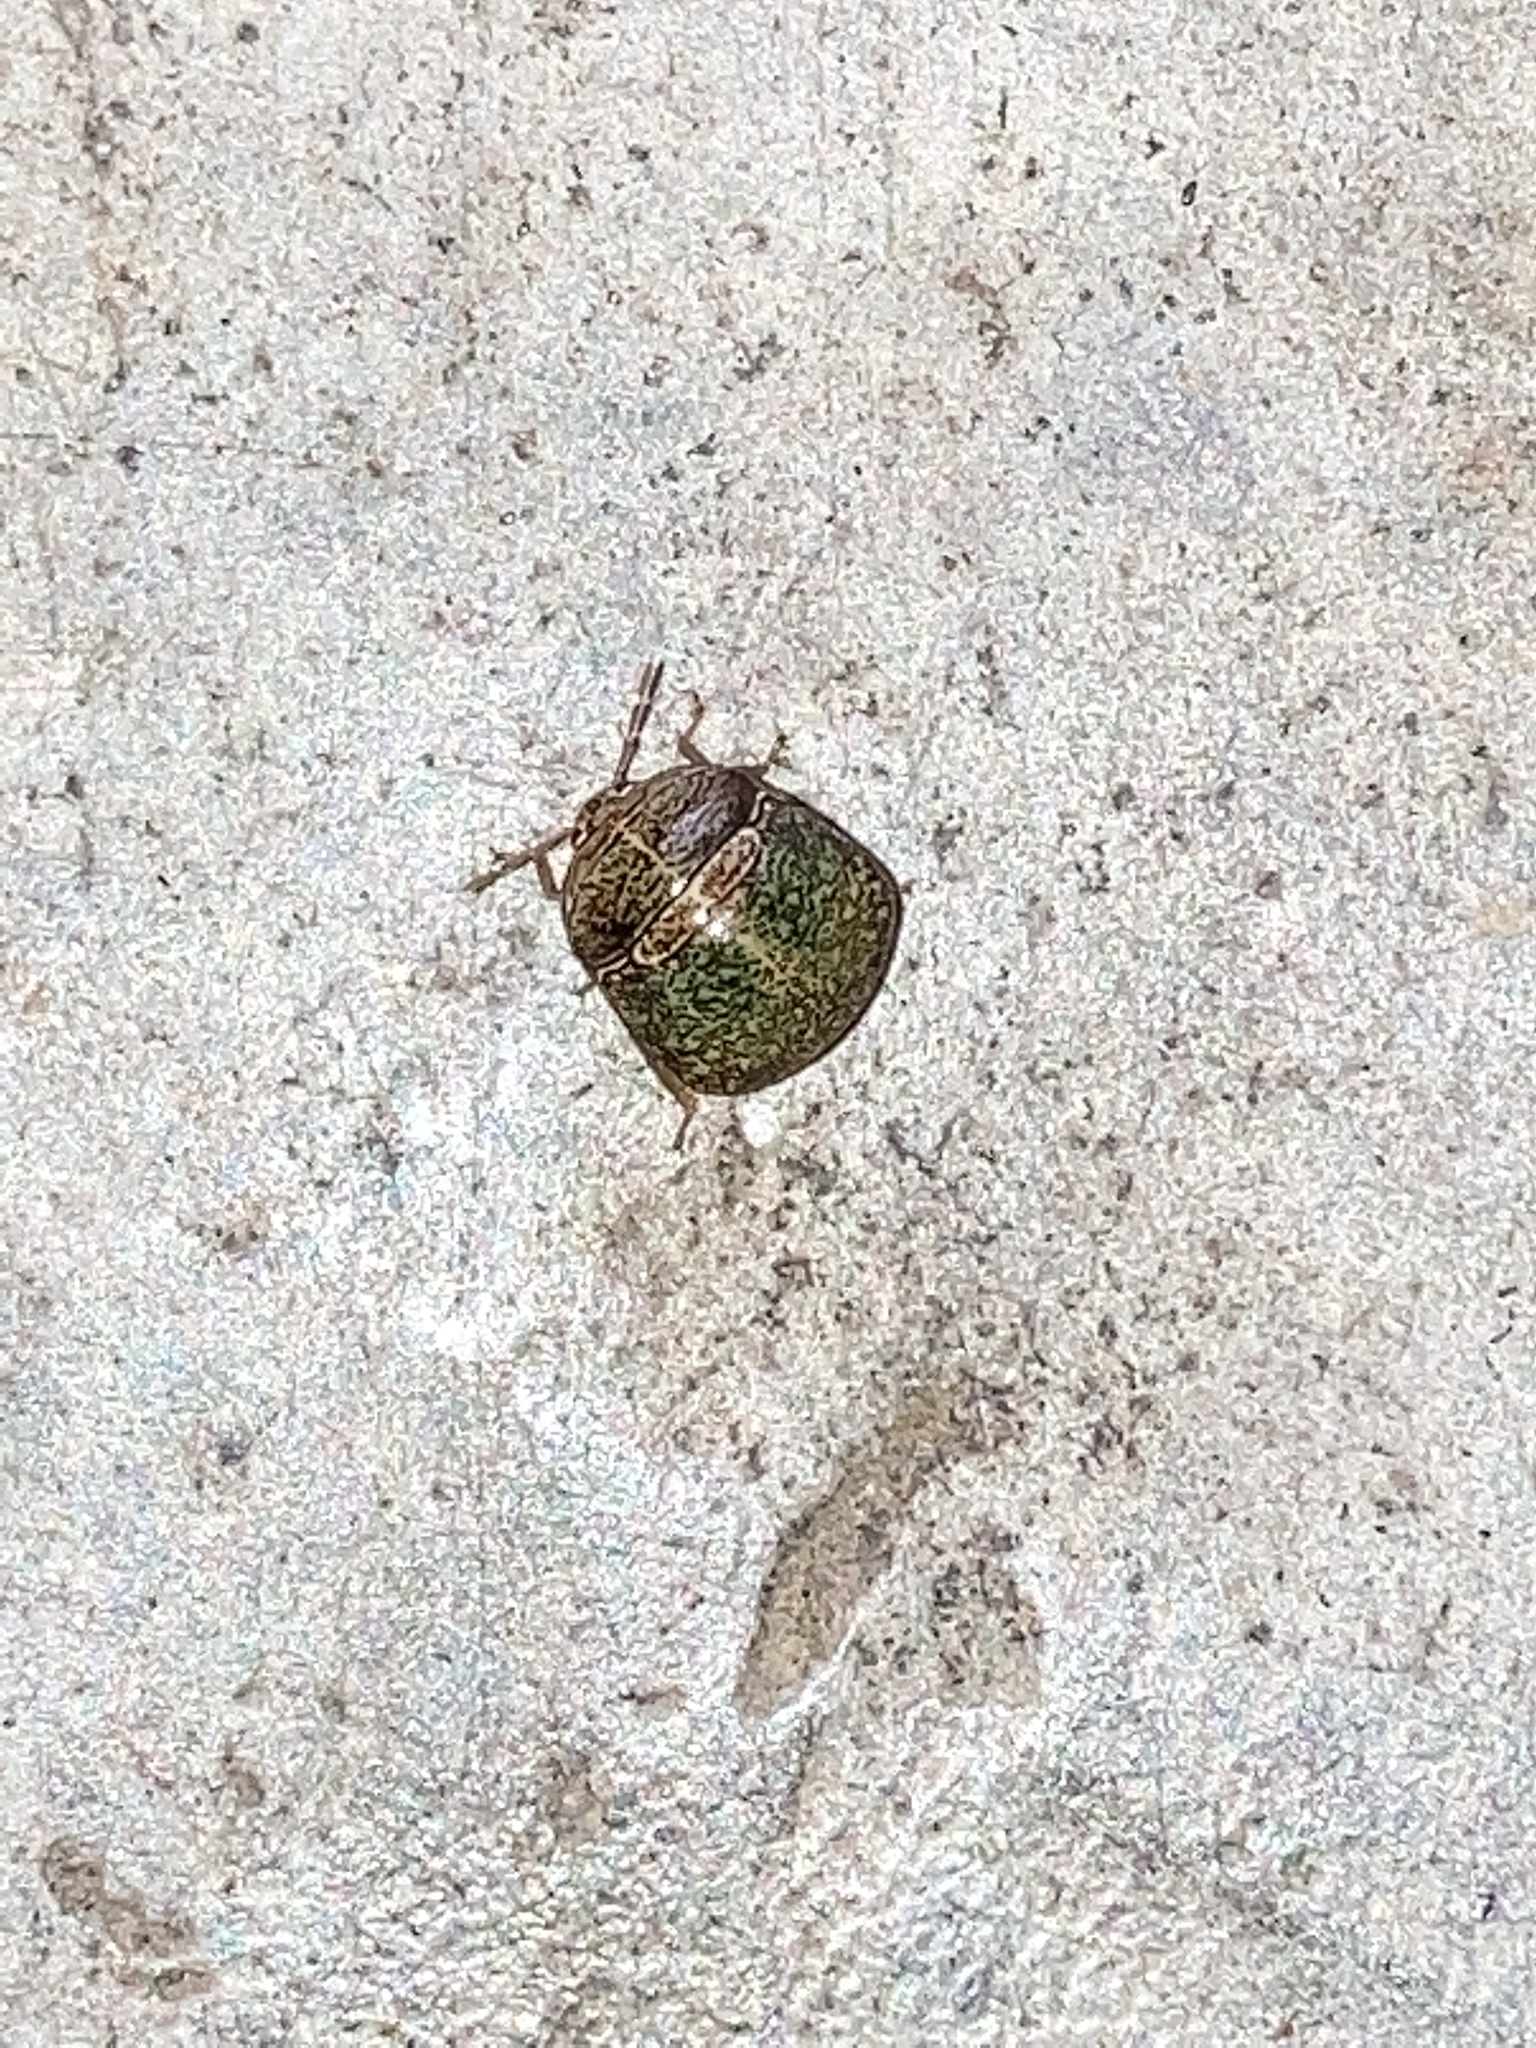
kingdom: Animalia
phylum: Arthropoda
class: Insecta
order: Hemiptera
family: Plataspidae
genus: Megacopta
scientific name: Megacopta cribraria
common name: Bean plataspid
